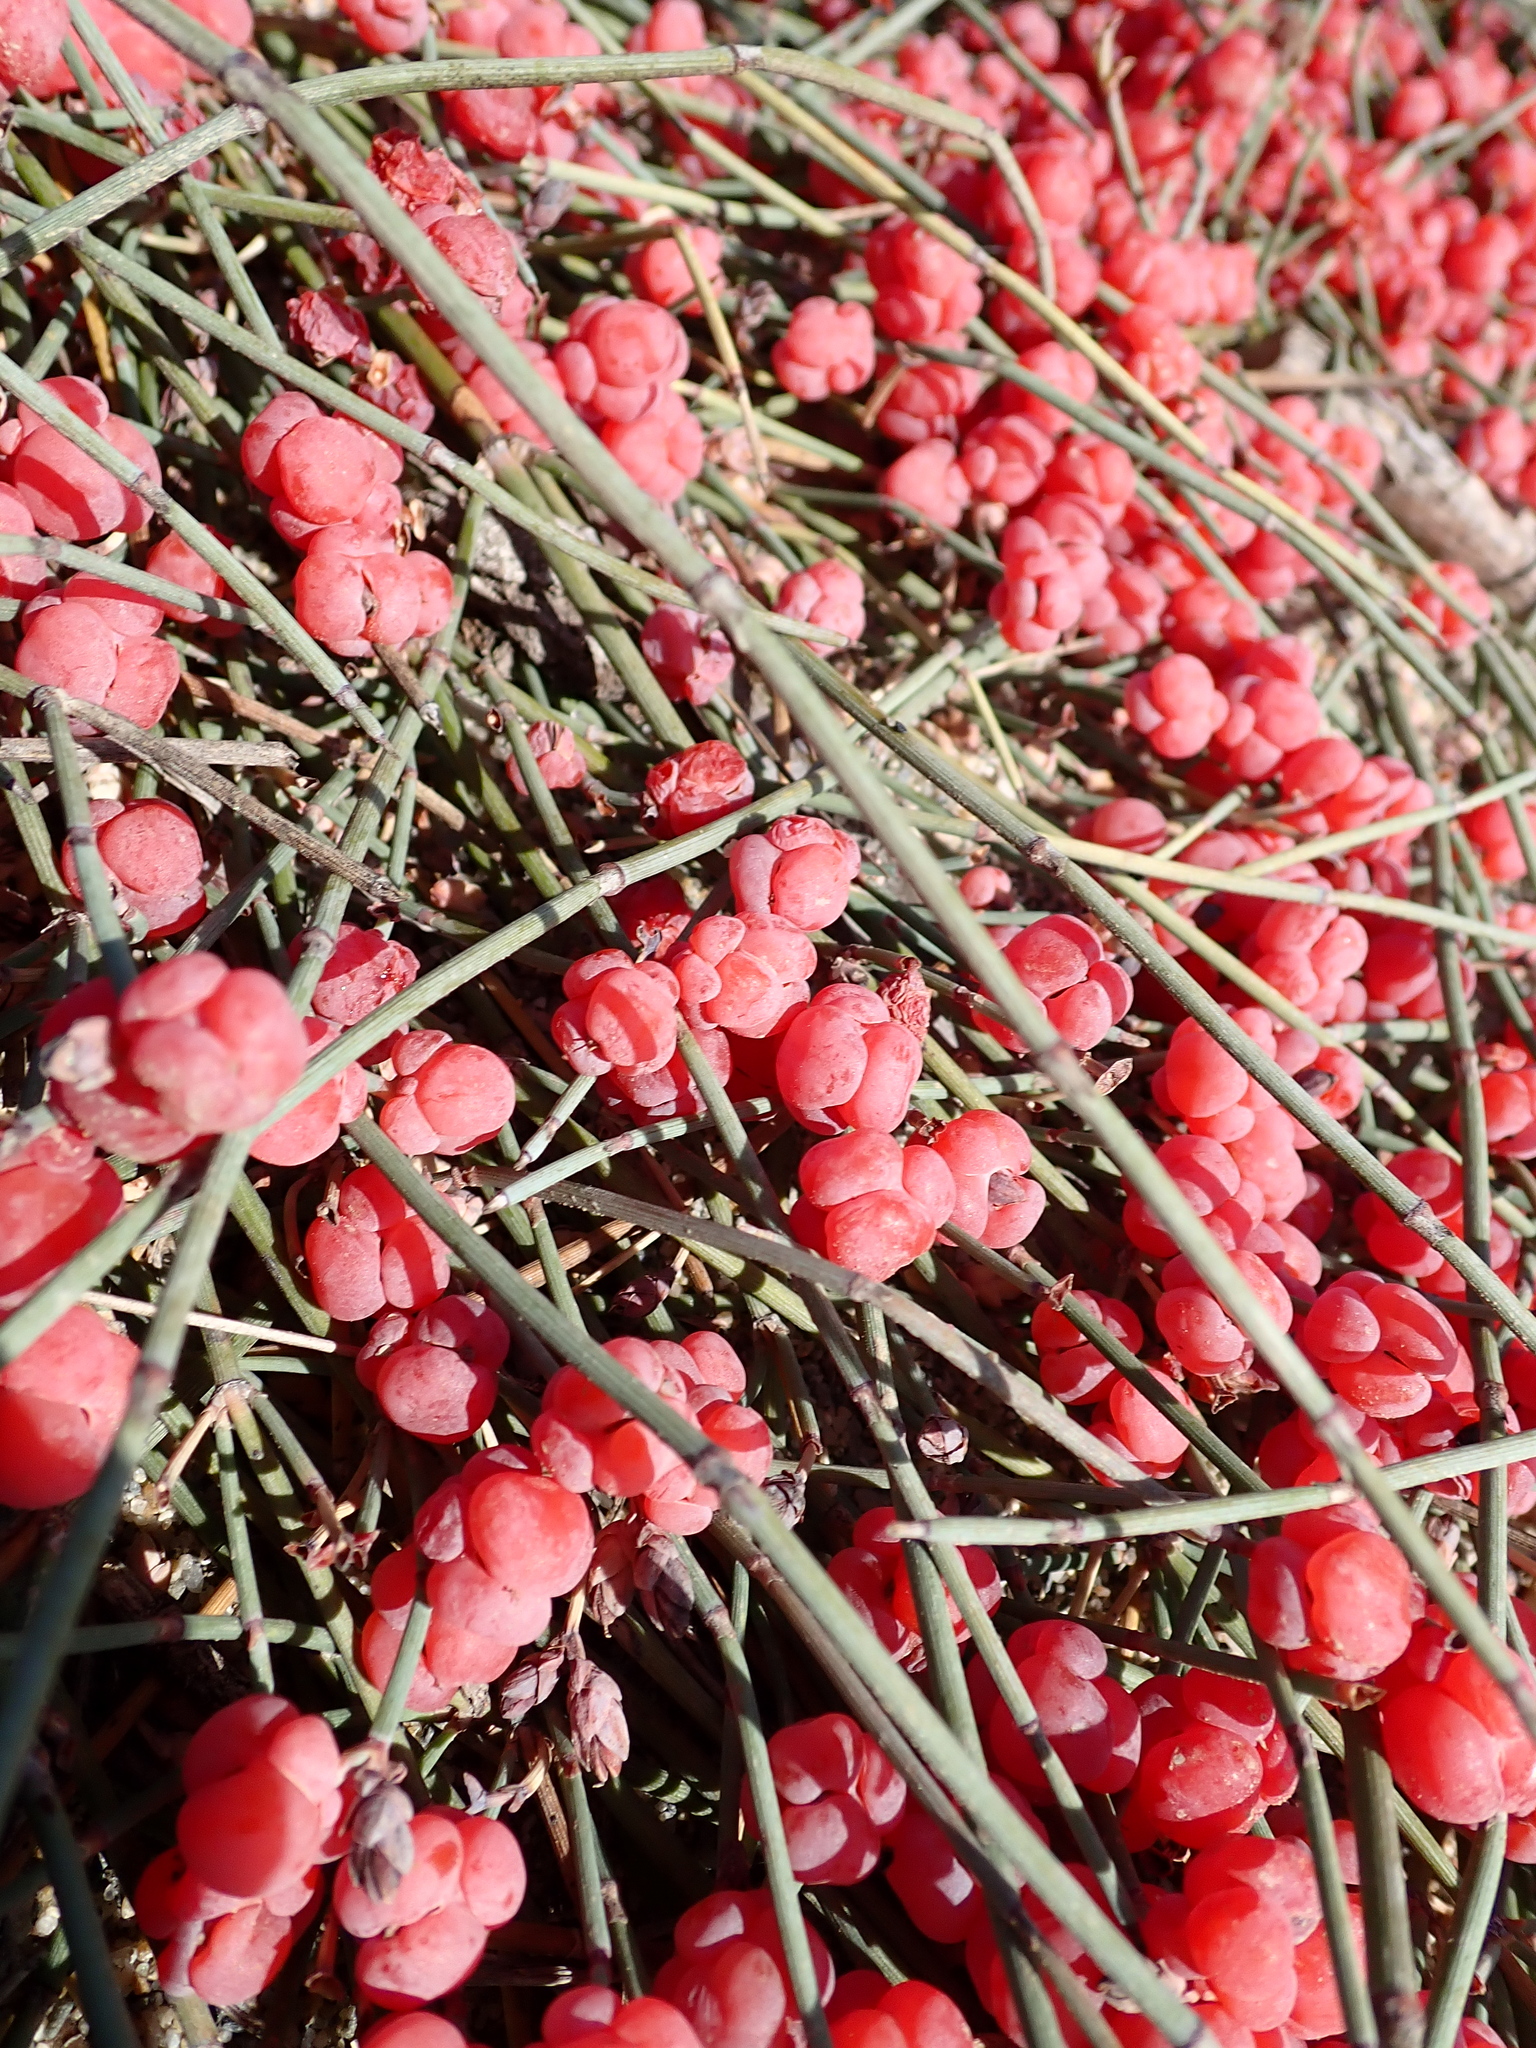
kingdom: Plantae
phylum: Tracheophyta
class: Gnetopsida
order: Ephedrales
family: Ephedraceae
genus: Ephedra
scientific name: Ephedra distachya
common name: Sea grape
